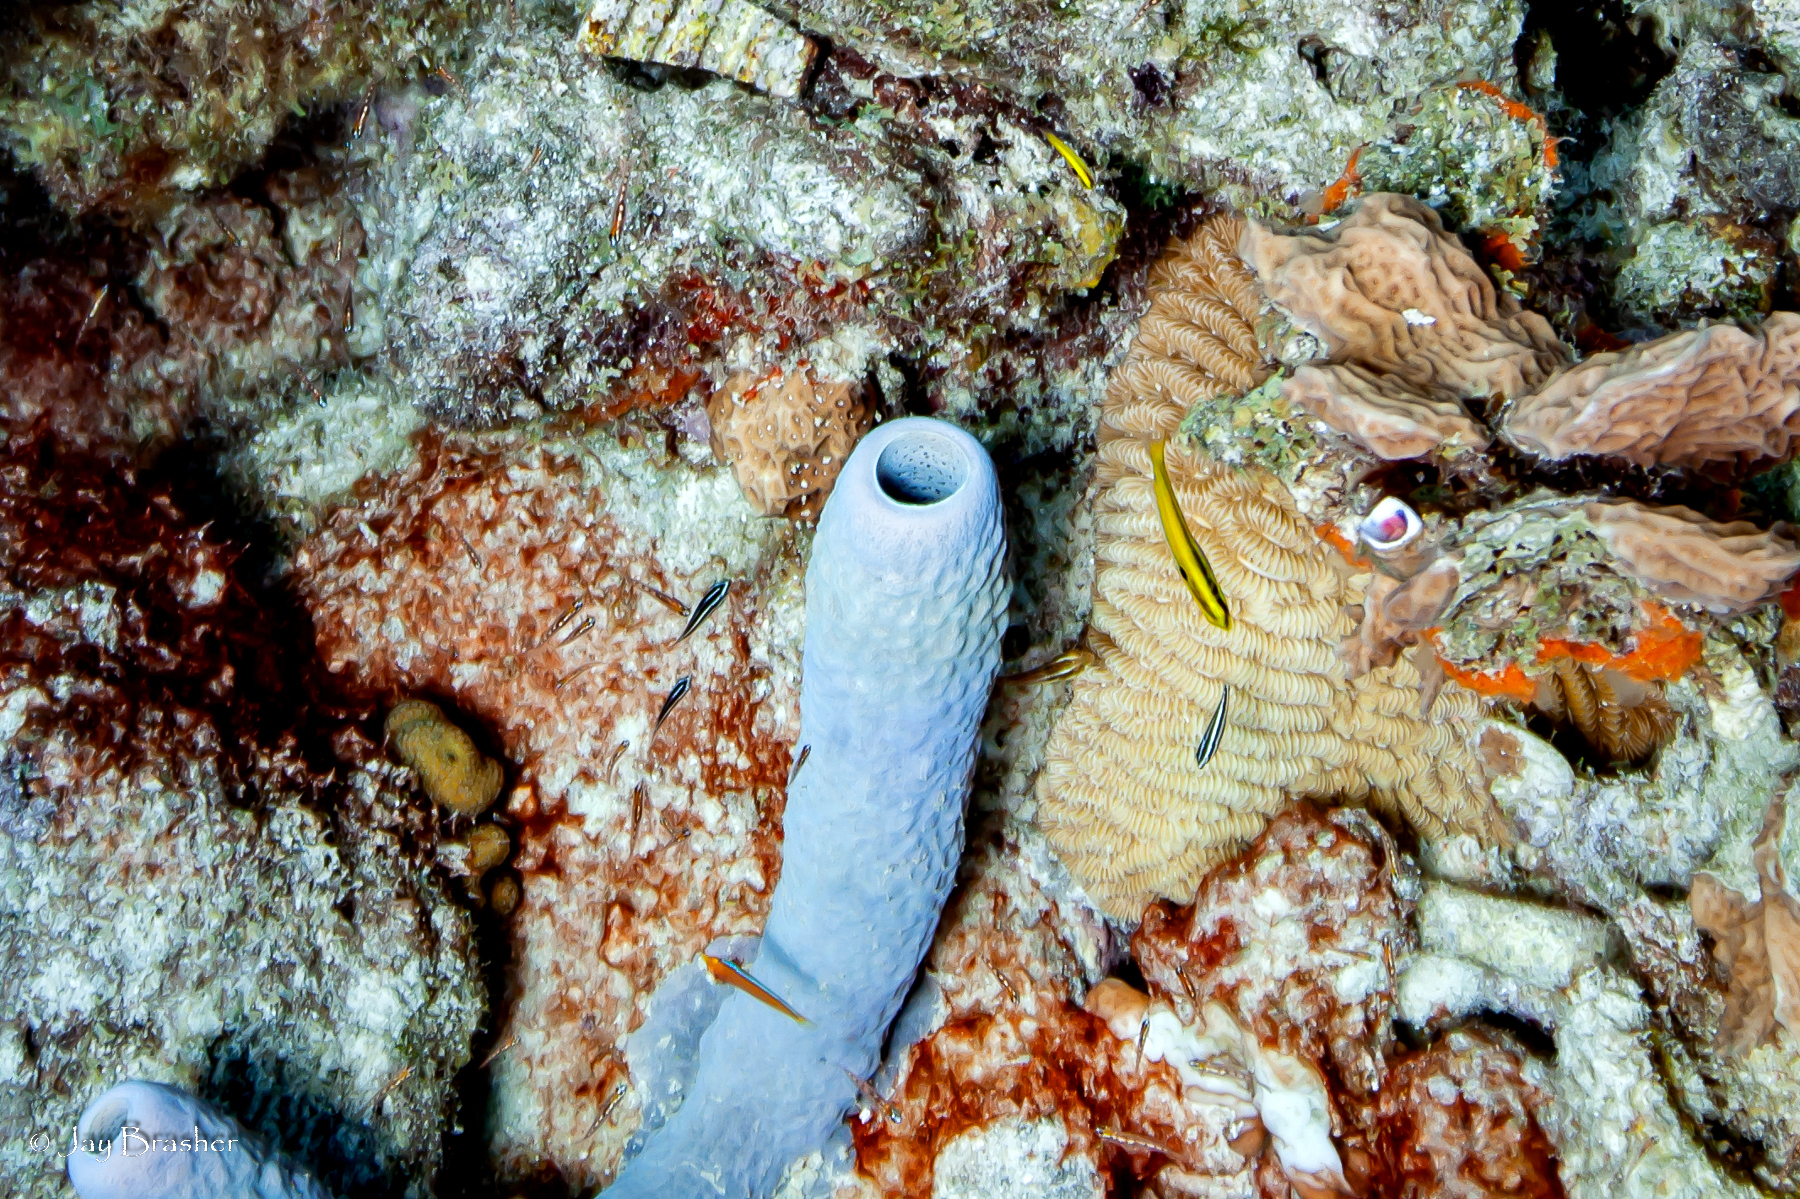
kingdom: Animalia
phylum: Cnidaria
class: Anthozoa
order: Scleractinia
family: Meandrinidae
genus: Meandrina
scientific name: Meandrina meandrites
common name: Maze coral
